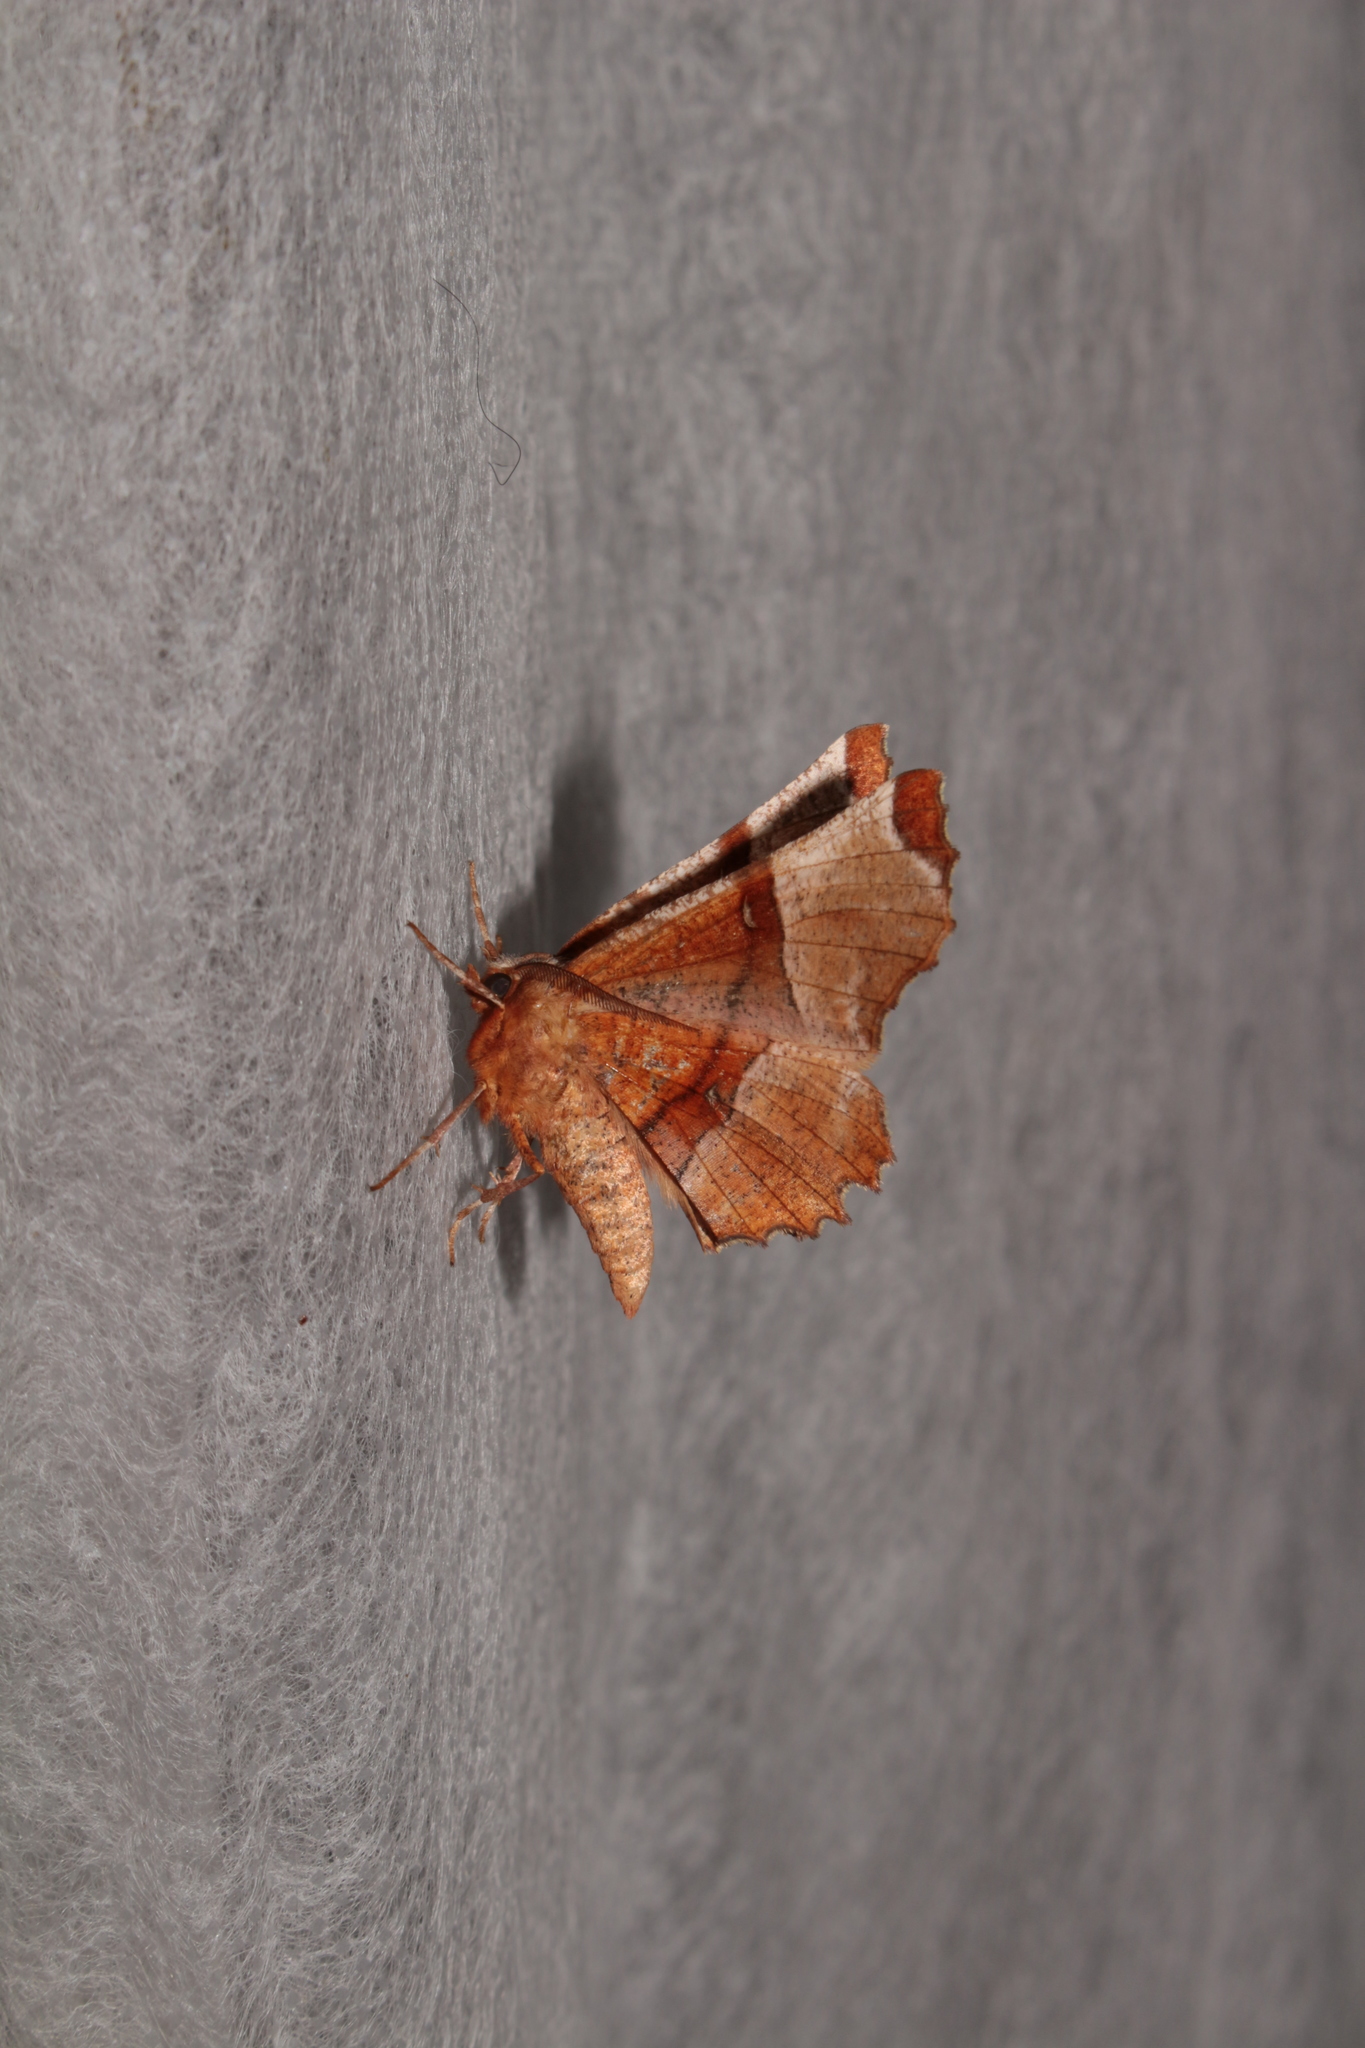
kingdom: Animalia
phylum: Arthropoda
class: Insecta
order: Lepidoptera
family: Geometridae
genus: Selenia
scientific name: Selenia lunularia
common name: Lunar thorn
